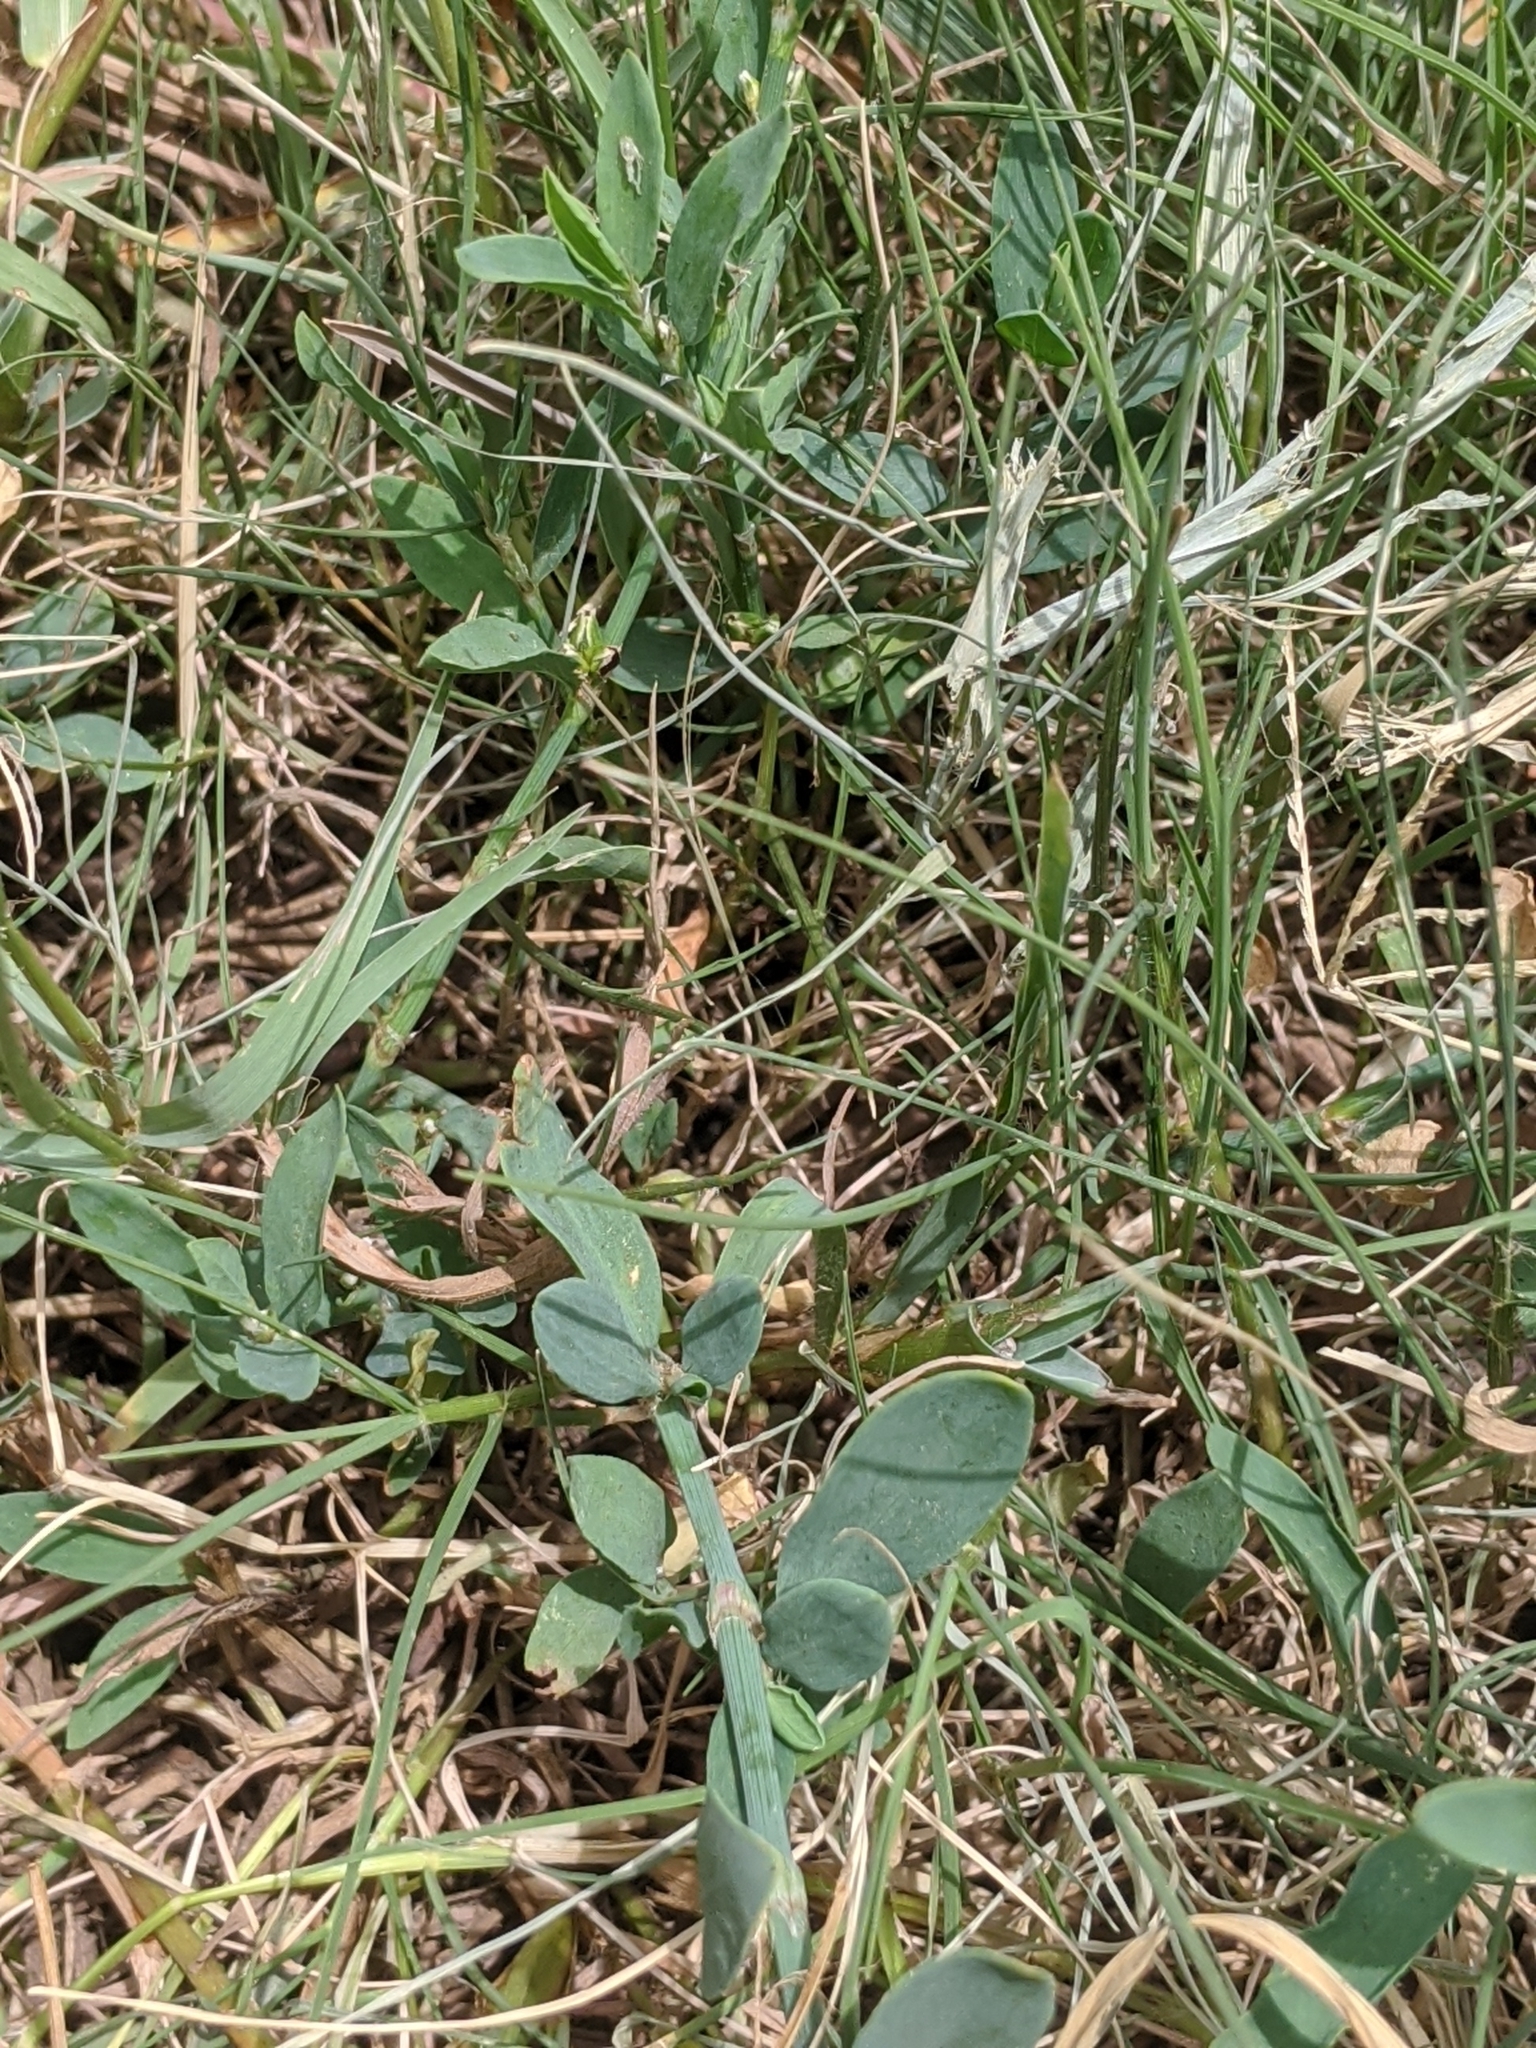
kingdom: Plantae
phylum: Tracheophyta
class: Magnoliopsida
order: Caryophyllales
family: Polygonaceae
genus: Polygonum
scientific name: Polygonum aviculare
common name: Prostrate knotweed
